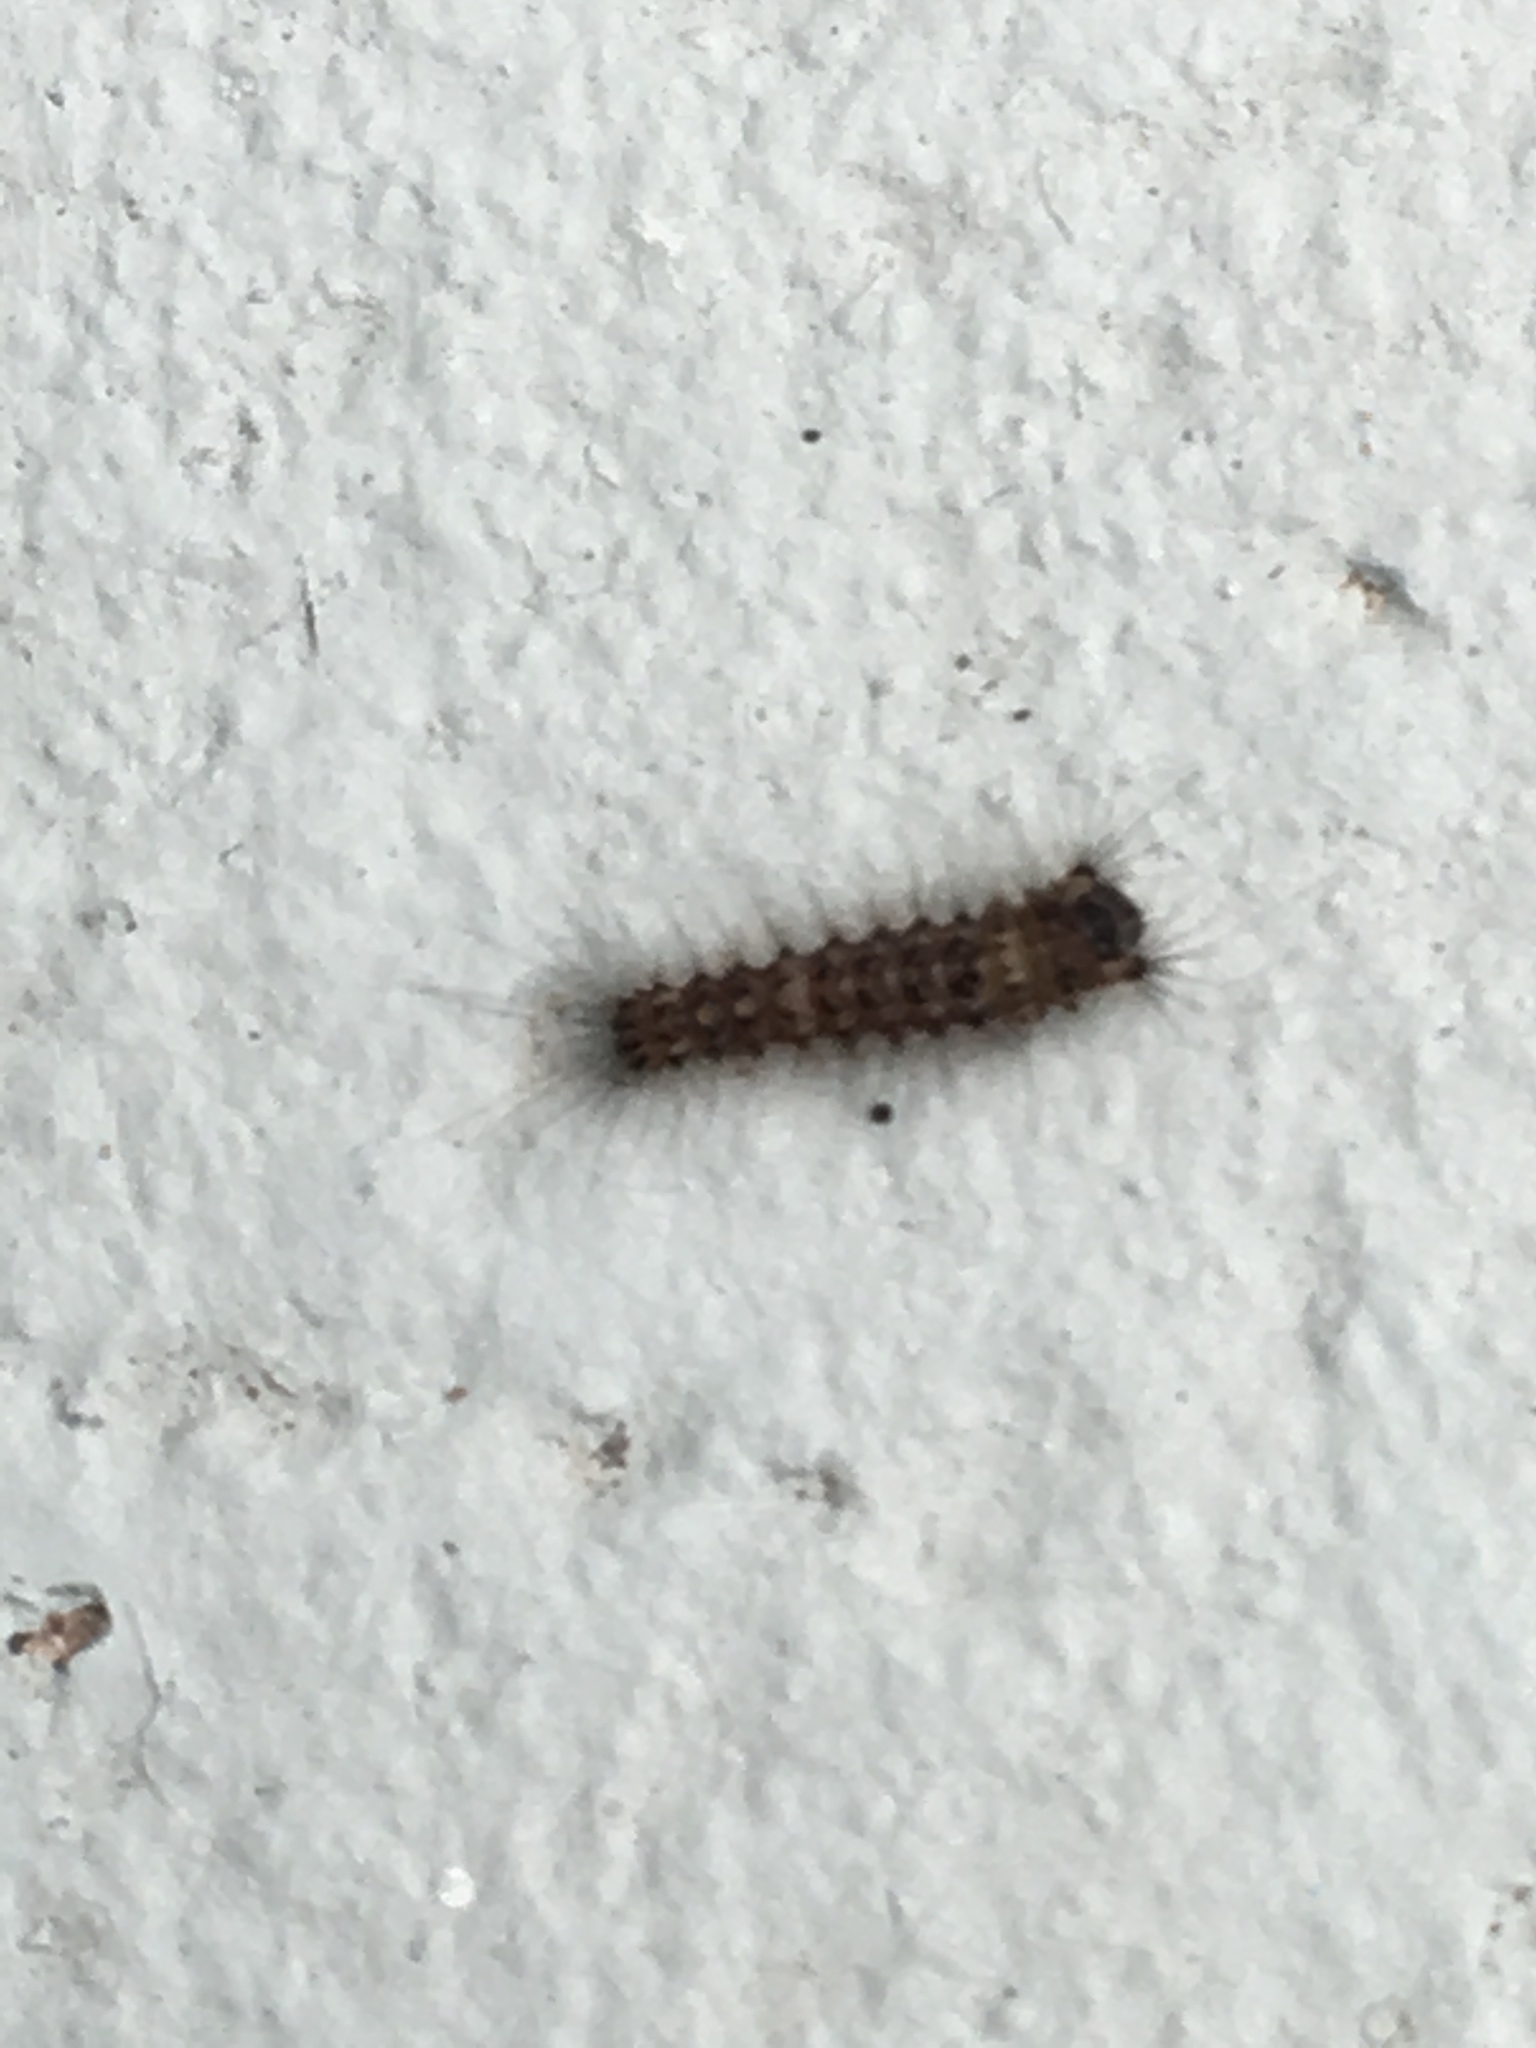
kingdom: Animalia
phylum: Arthropoda
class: Insecta
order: Lepidoptera
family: Erebidae
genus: Orgyia
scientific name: Orgyia antiqua
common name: Vapourer
